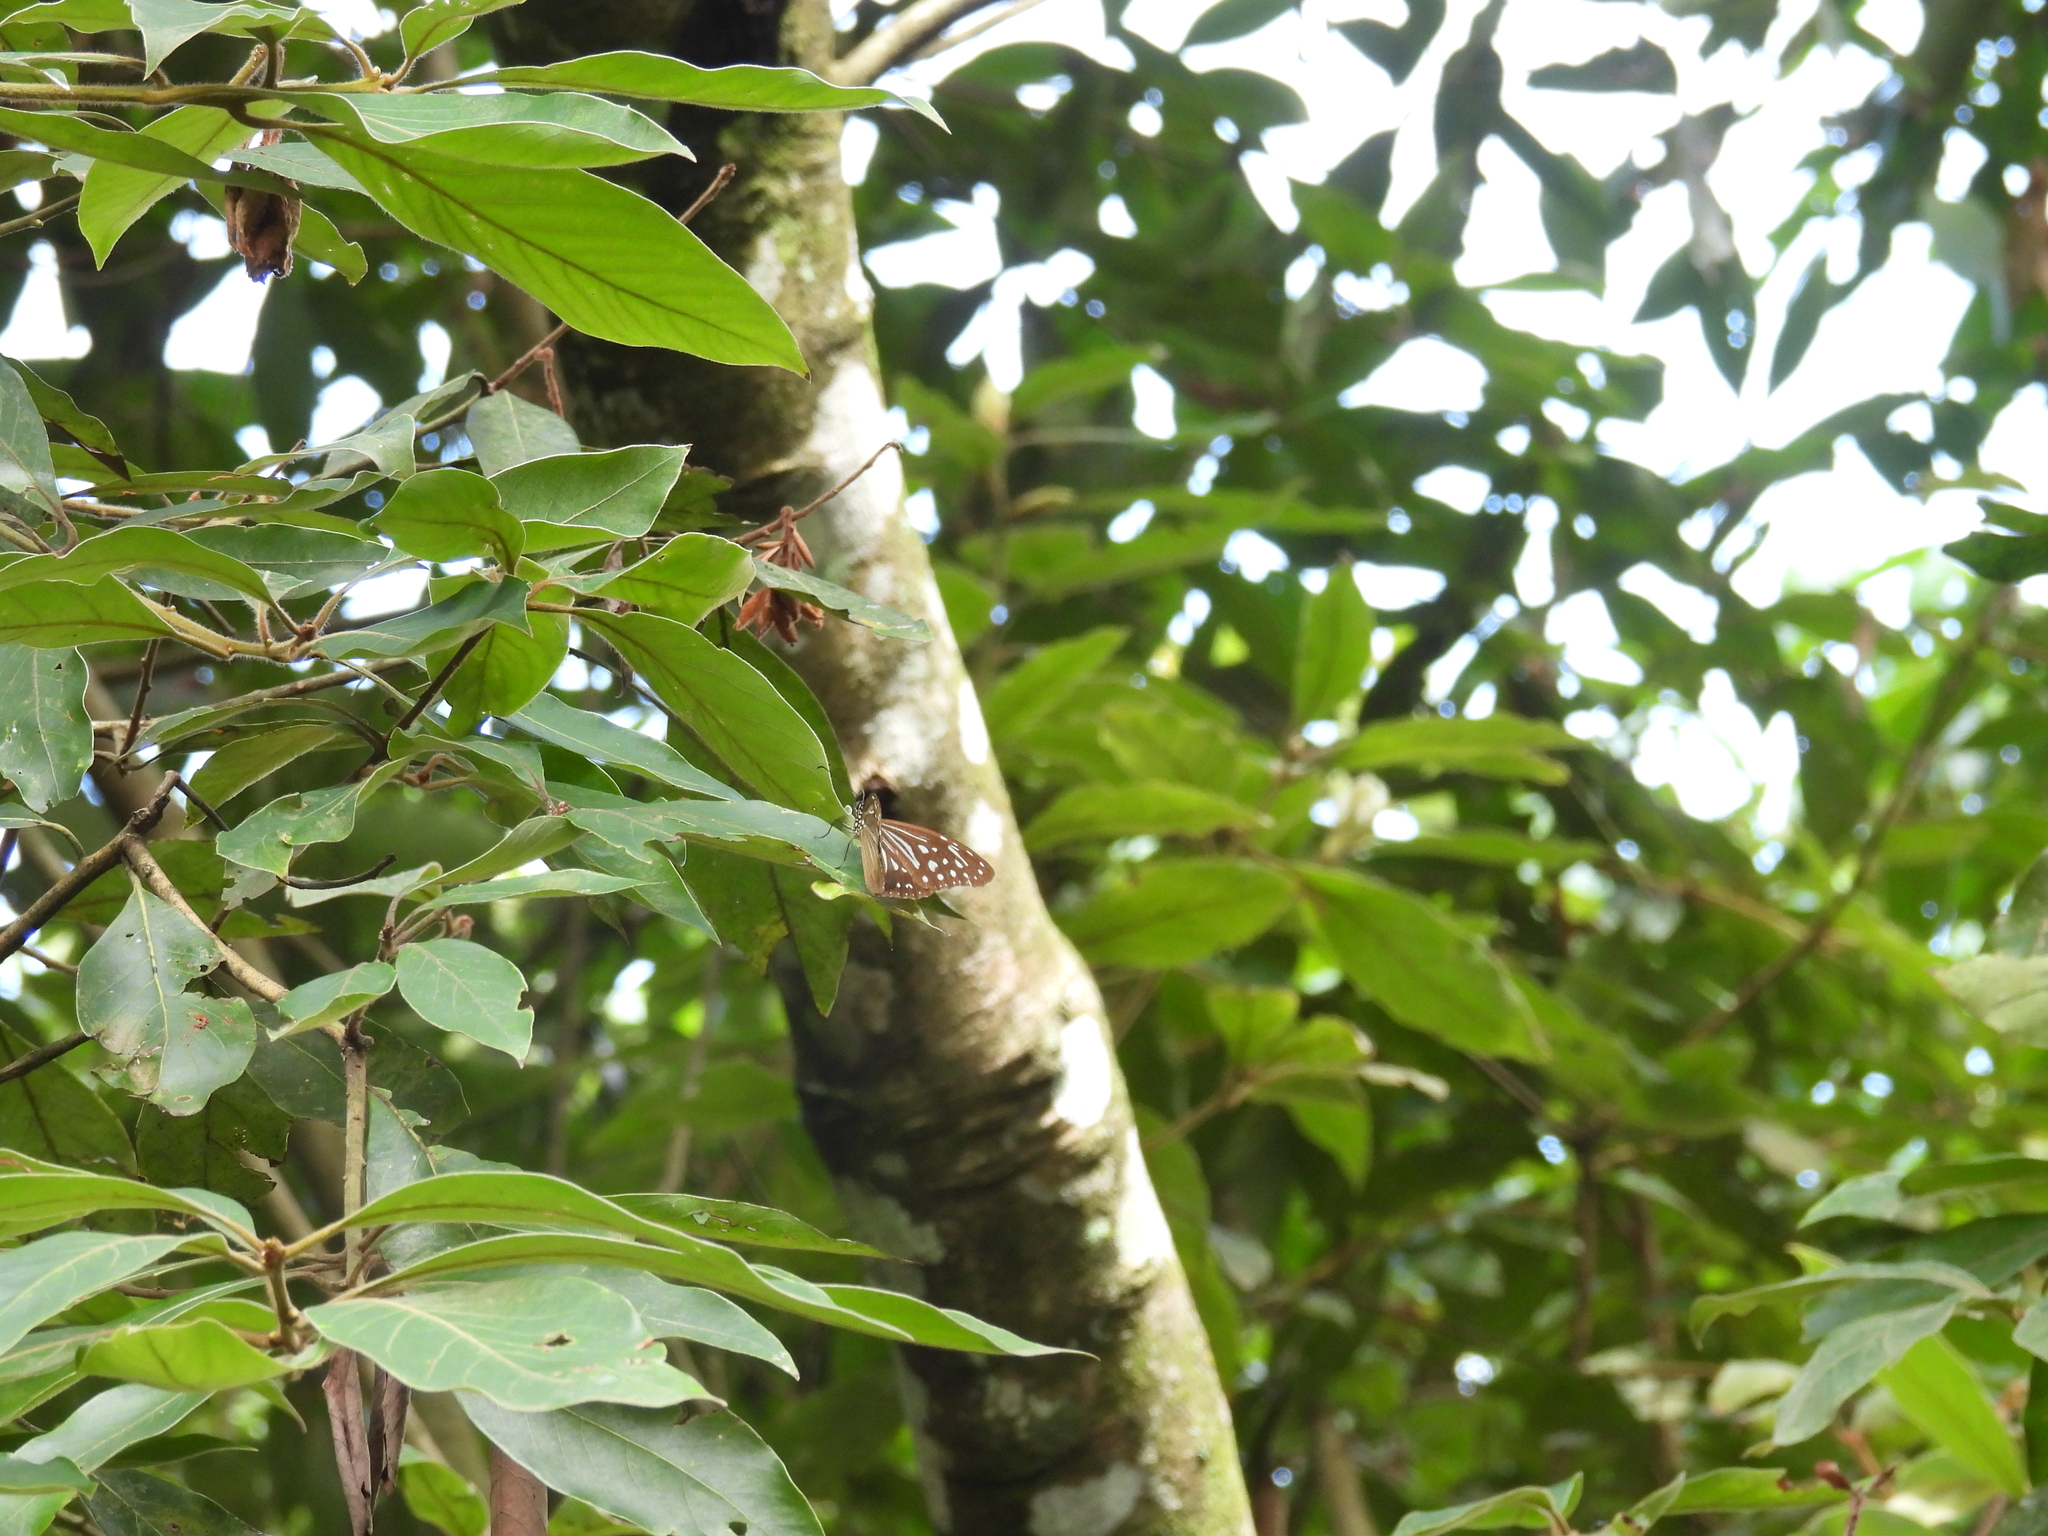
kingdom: Animalia
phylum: Arthropoda
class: Insecta
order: Lepidoptera
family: Nymphalidae
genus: Parantica
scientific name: Parantica nilgiriensis
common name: Nilgiri tiger
